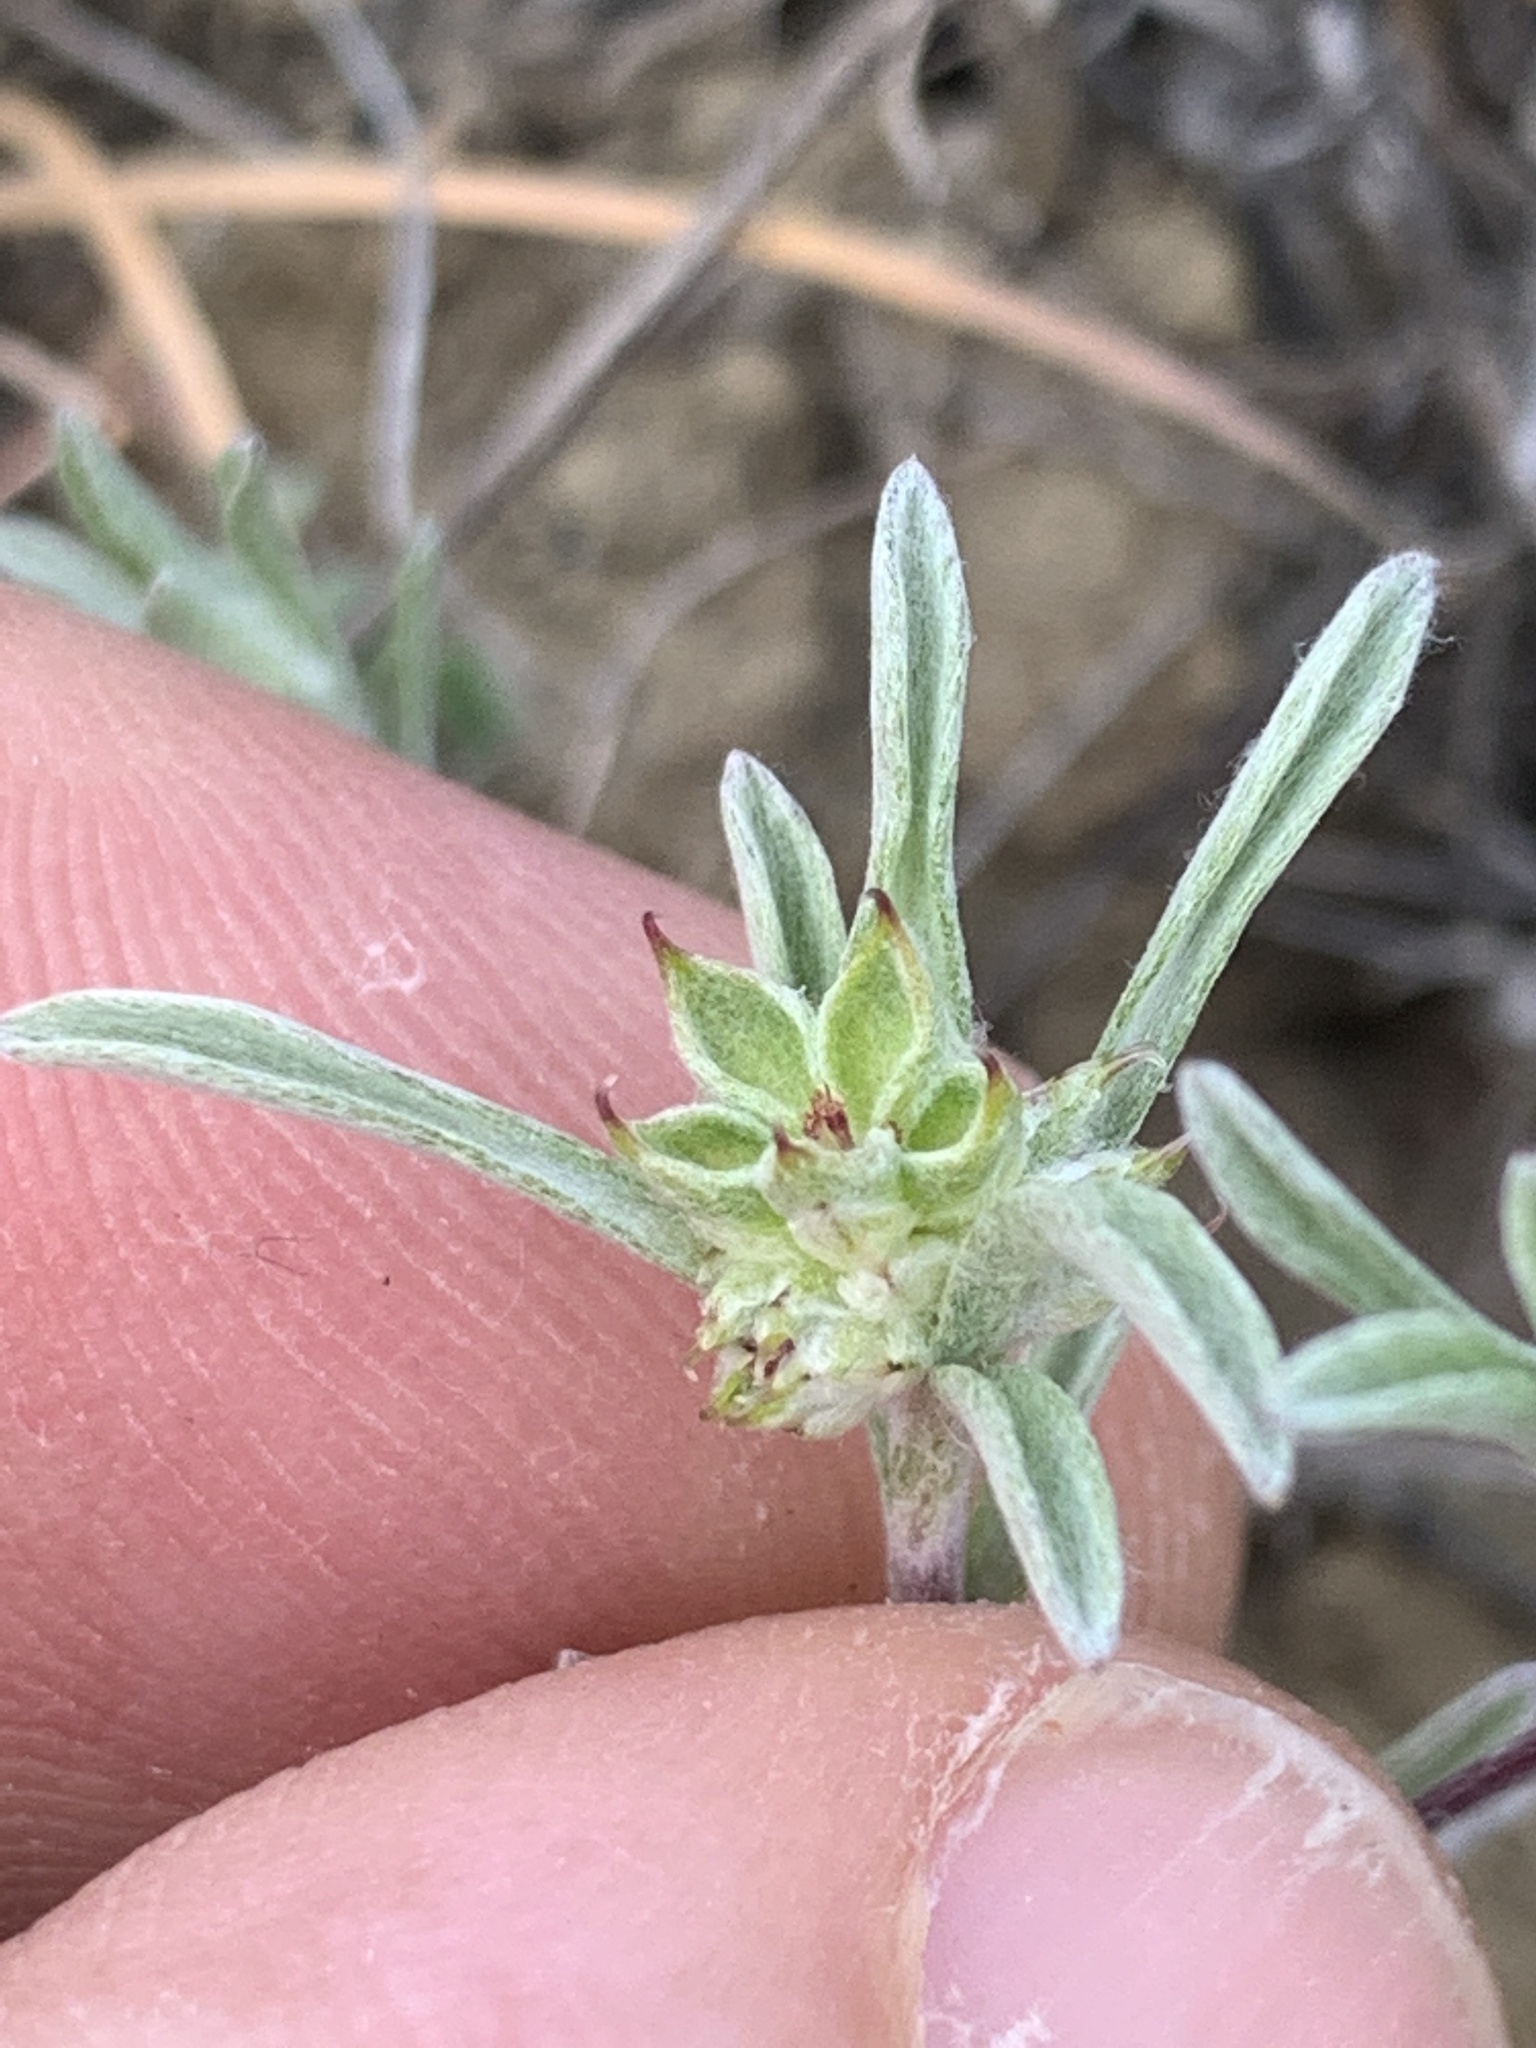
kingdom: Plantae
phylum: Tracheophyta
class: Magnoliopsida
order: Asterales
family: Asteraceae
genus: Ancistrocarphus
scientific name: Ancistrocarphus filagineus
